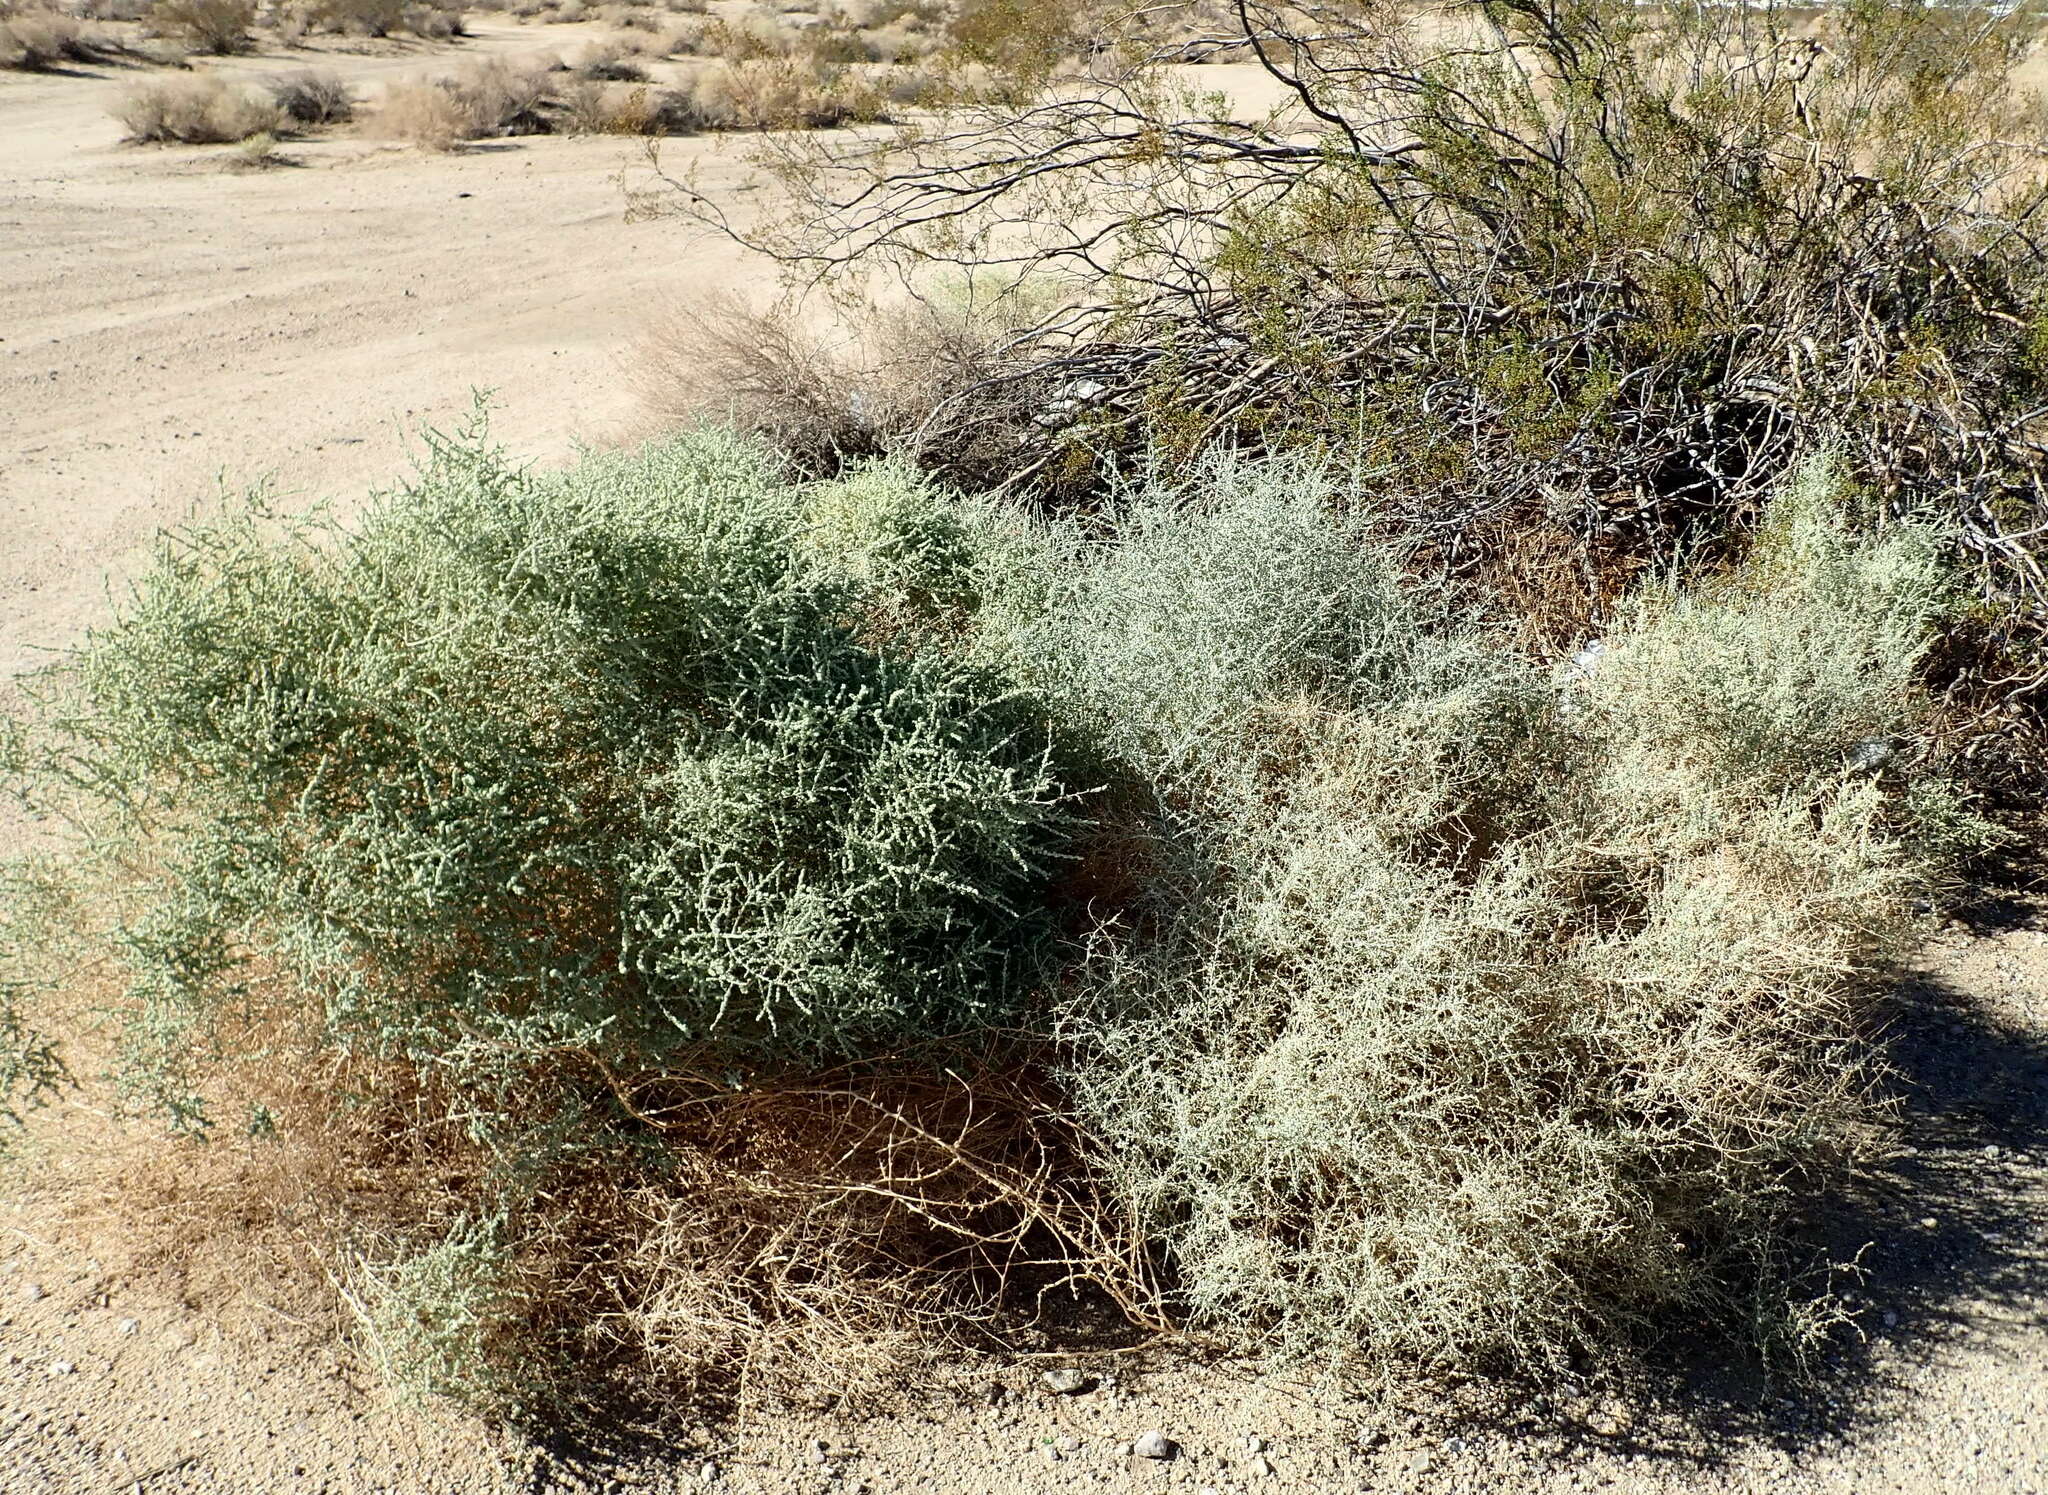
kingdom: Plantae
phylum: Tracheophyta
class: Magnoliopsida
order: Caryophyllales
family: Amaranthaceae
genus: Atriplex
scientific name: Atriplex polycarpa
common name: Desert saltbush
